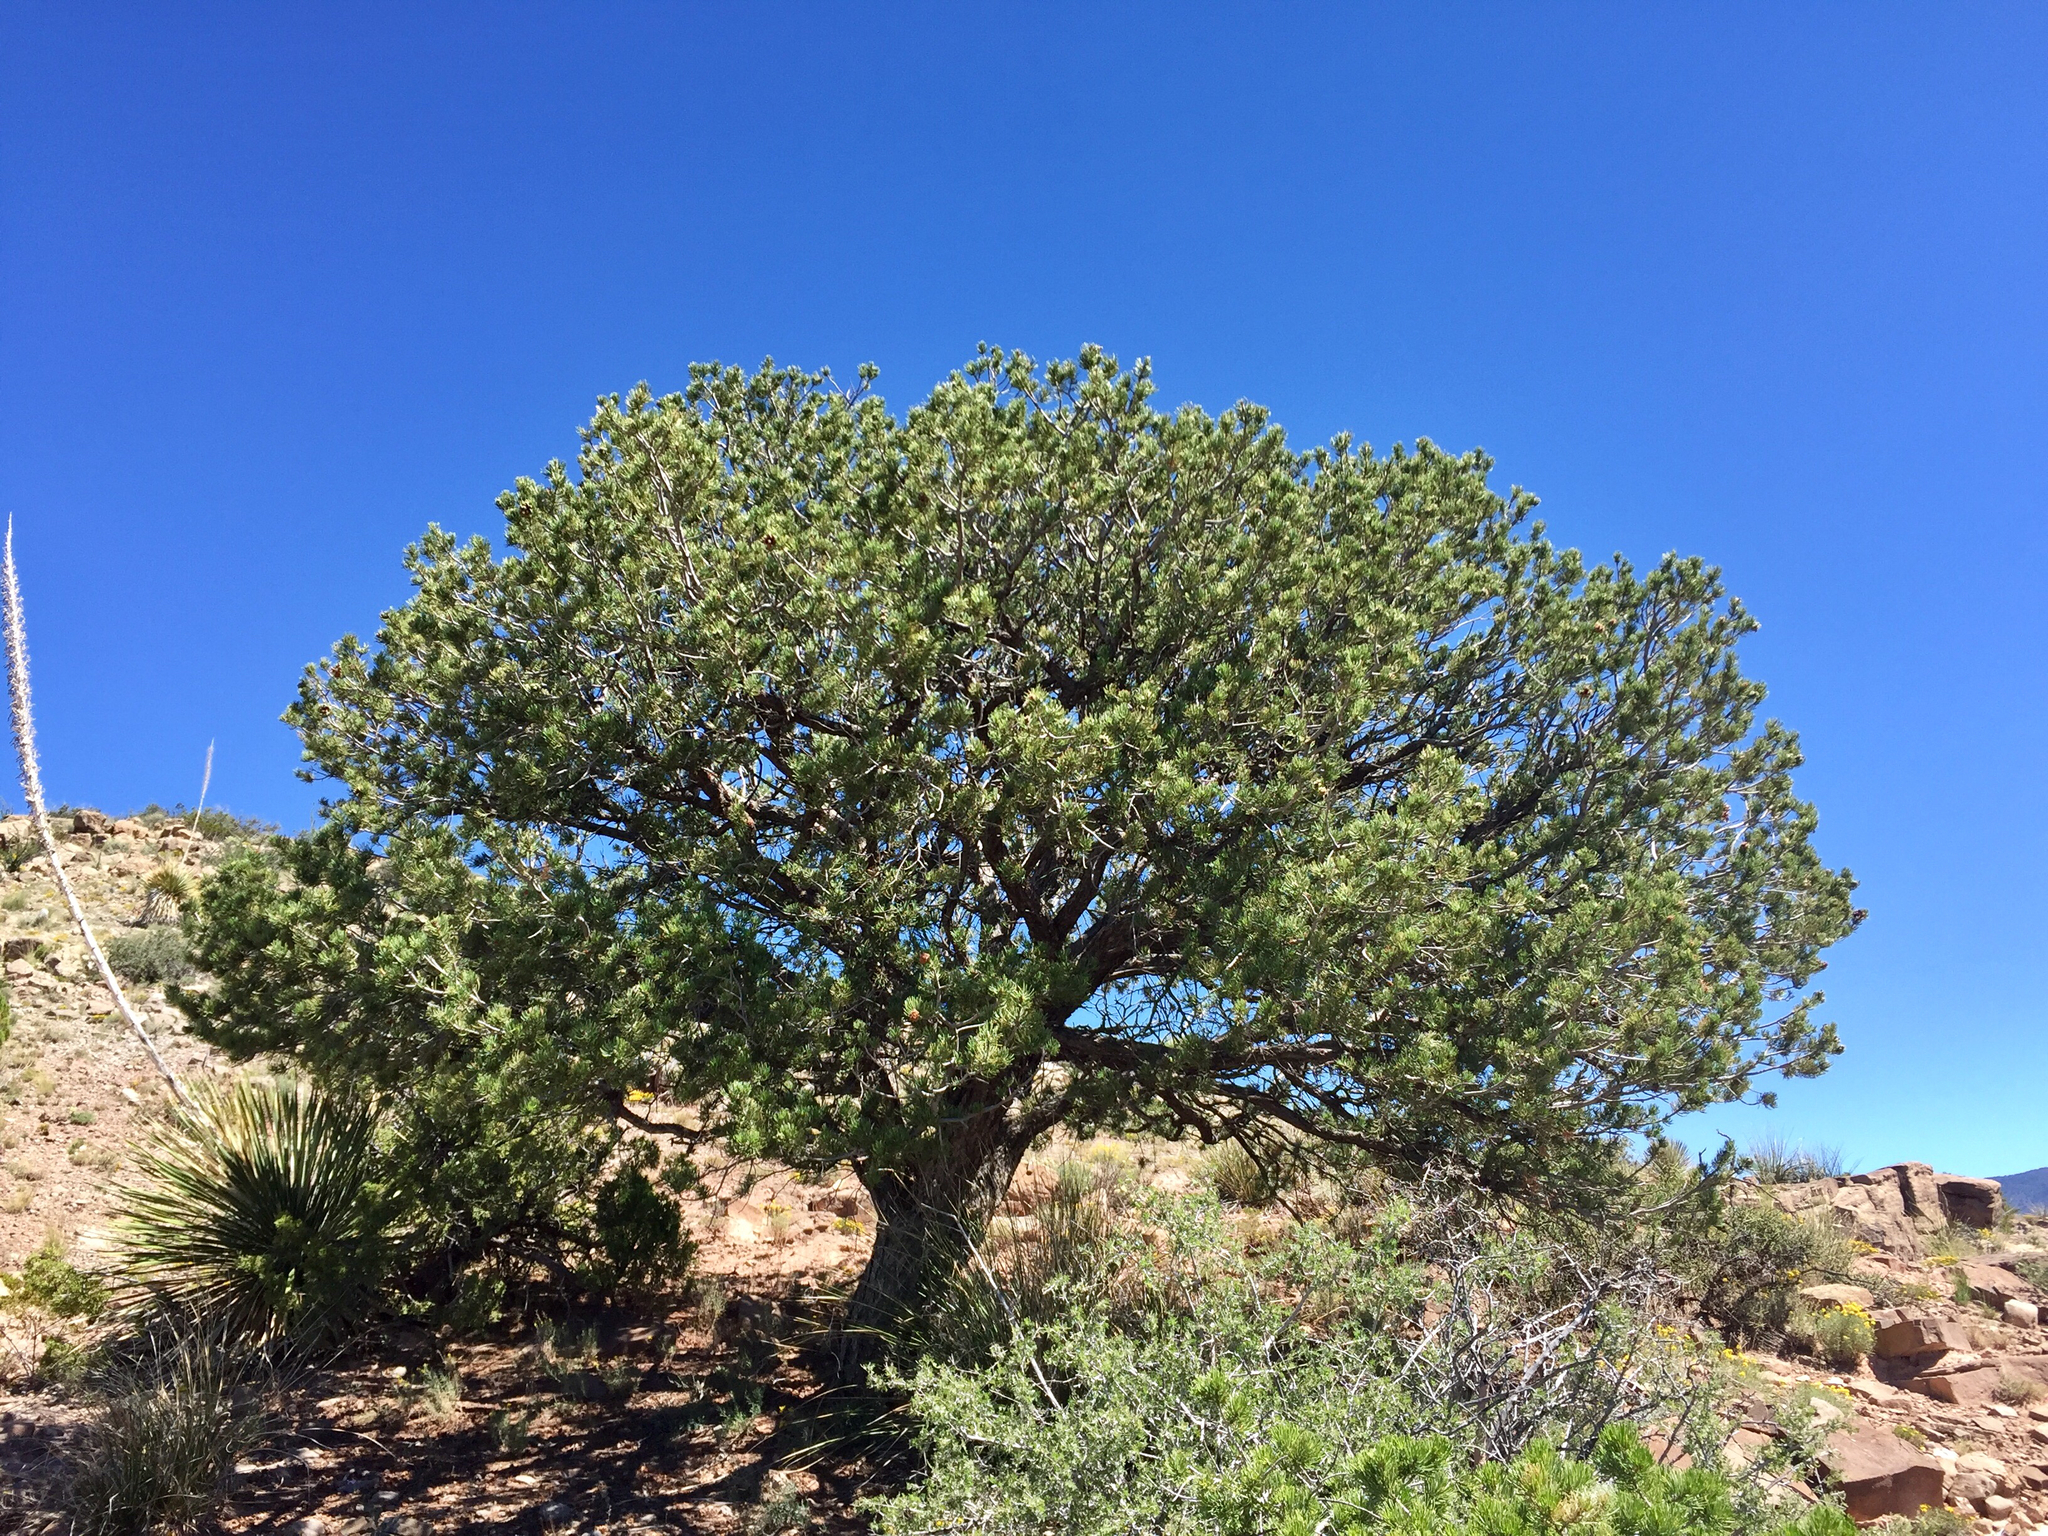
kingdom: Plantae
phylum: Tracheophyta
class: Pinopsida
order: Pinales
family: Pinaceae
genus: Pinus
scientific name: Pinus edulis
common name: Colorado pinyon
